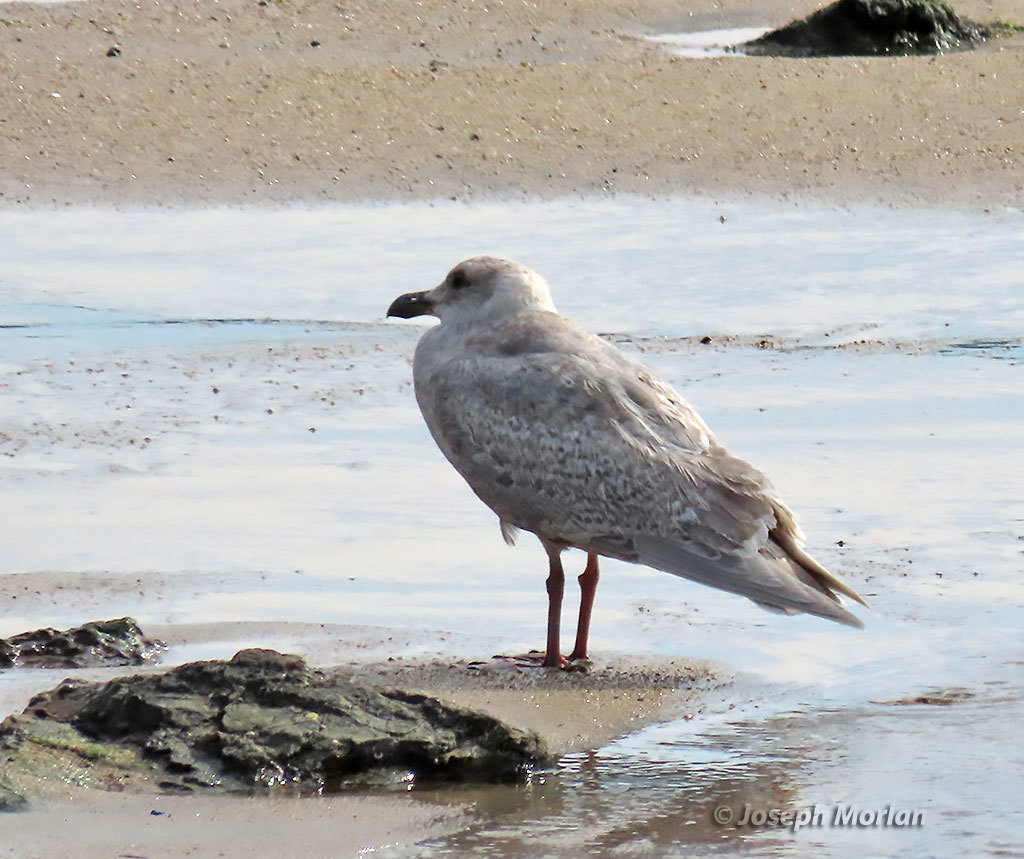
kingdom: Animalia
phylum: Chordata
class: Aves
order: Charadriiformes
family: Laridae
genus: Larus
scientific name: Larus glaucescens
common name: Glaucous-winged gull
